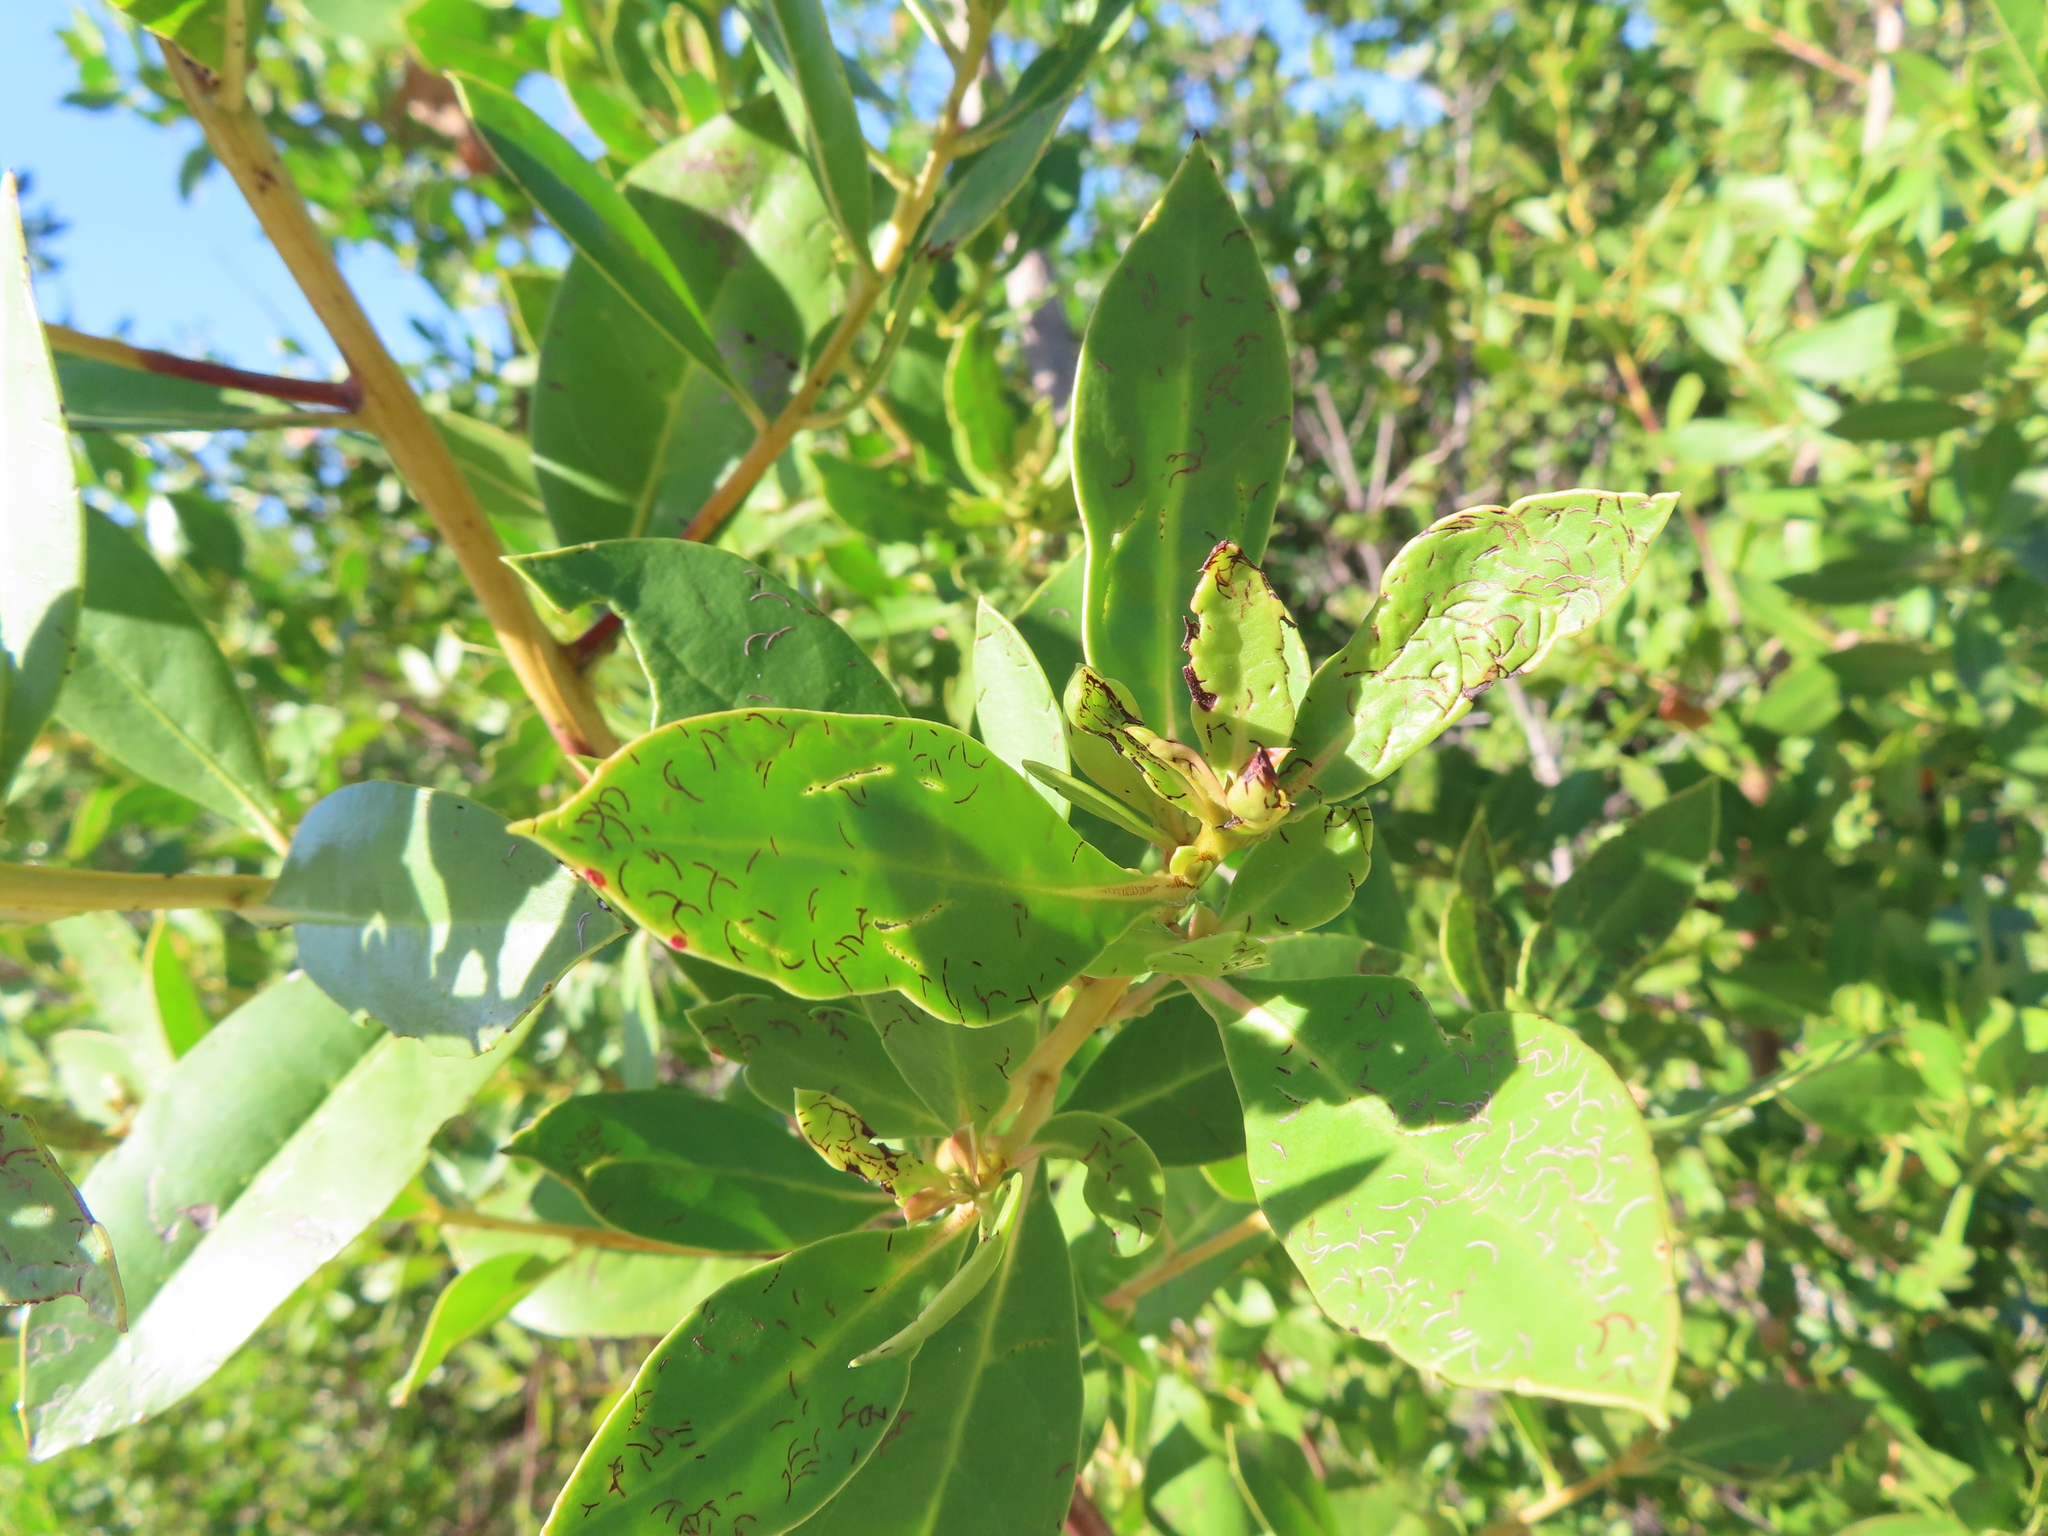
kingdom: Animalia
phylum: Arthropoda
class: Insecta
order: Coleoptera
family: Chrysomelidae
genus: Chaetocnema
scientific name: Chaetocnema brunnescens
